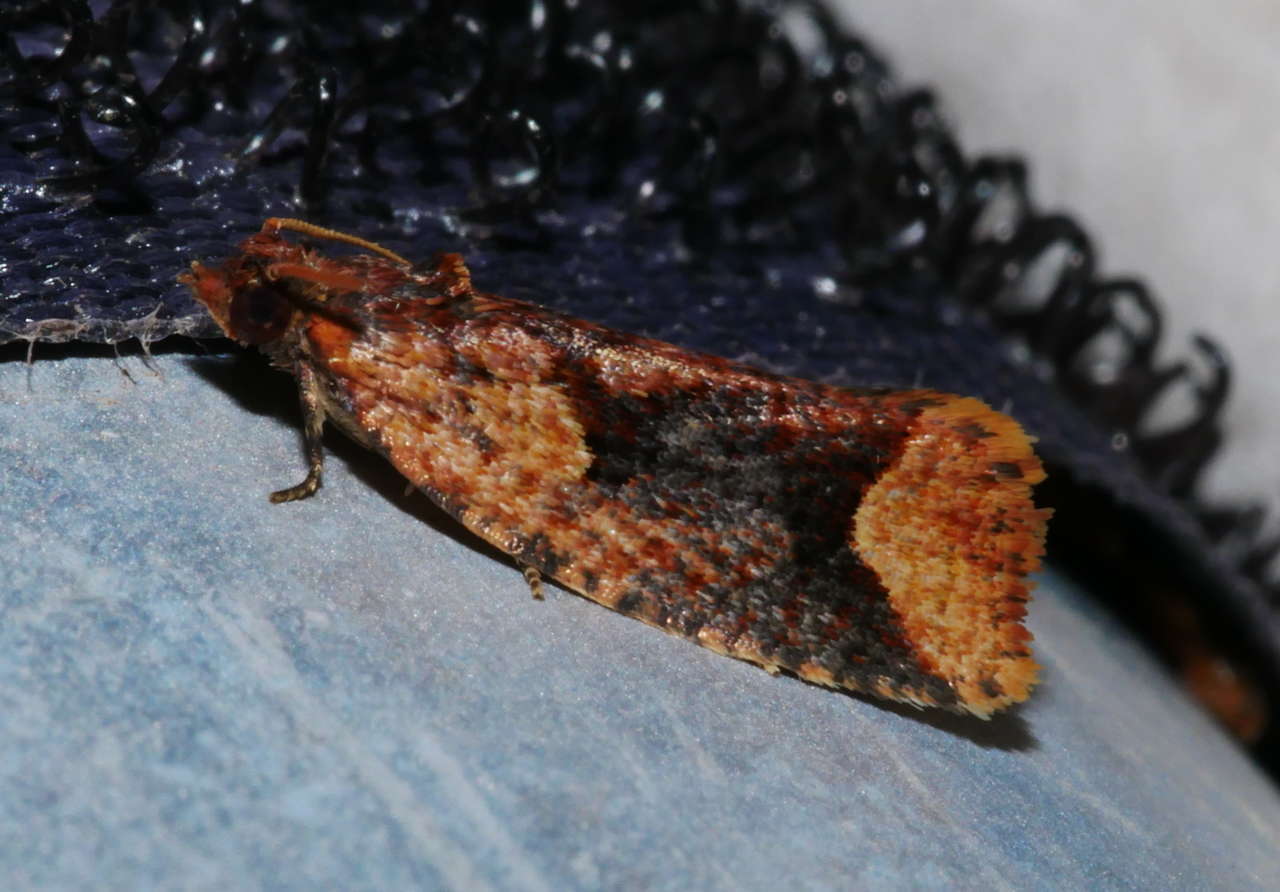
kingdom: Animalia
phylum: Arthropoda
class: Insecta
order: Lepidoptera
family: Tortricidae
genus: Epitymbia
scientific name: Epitymbia scotinopa
